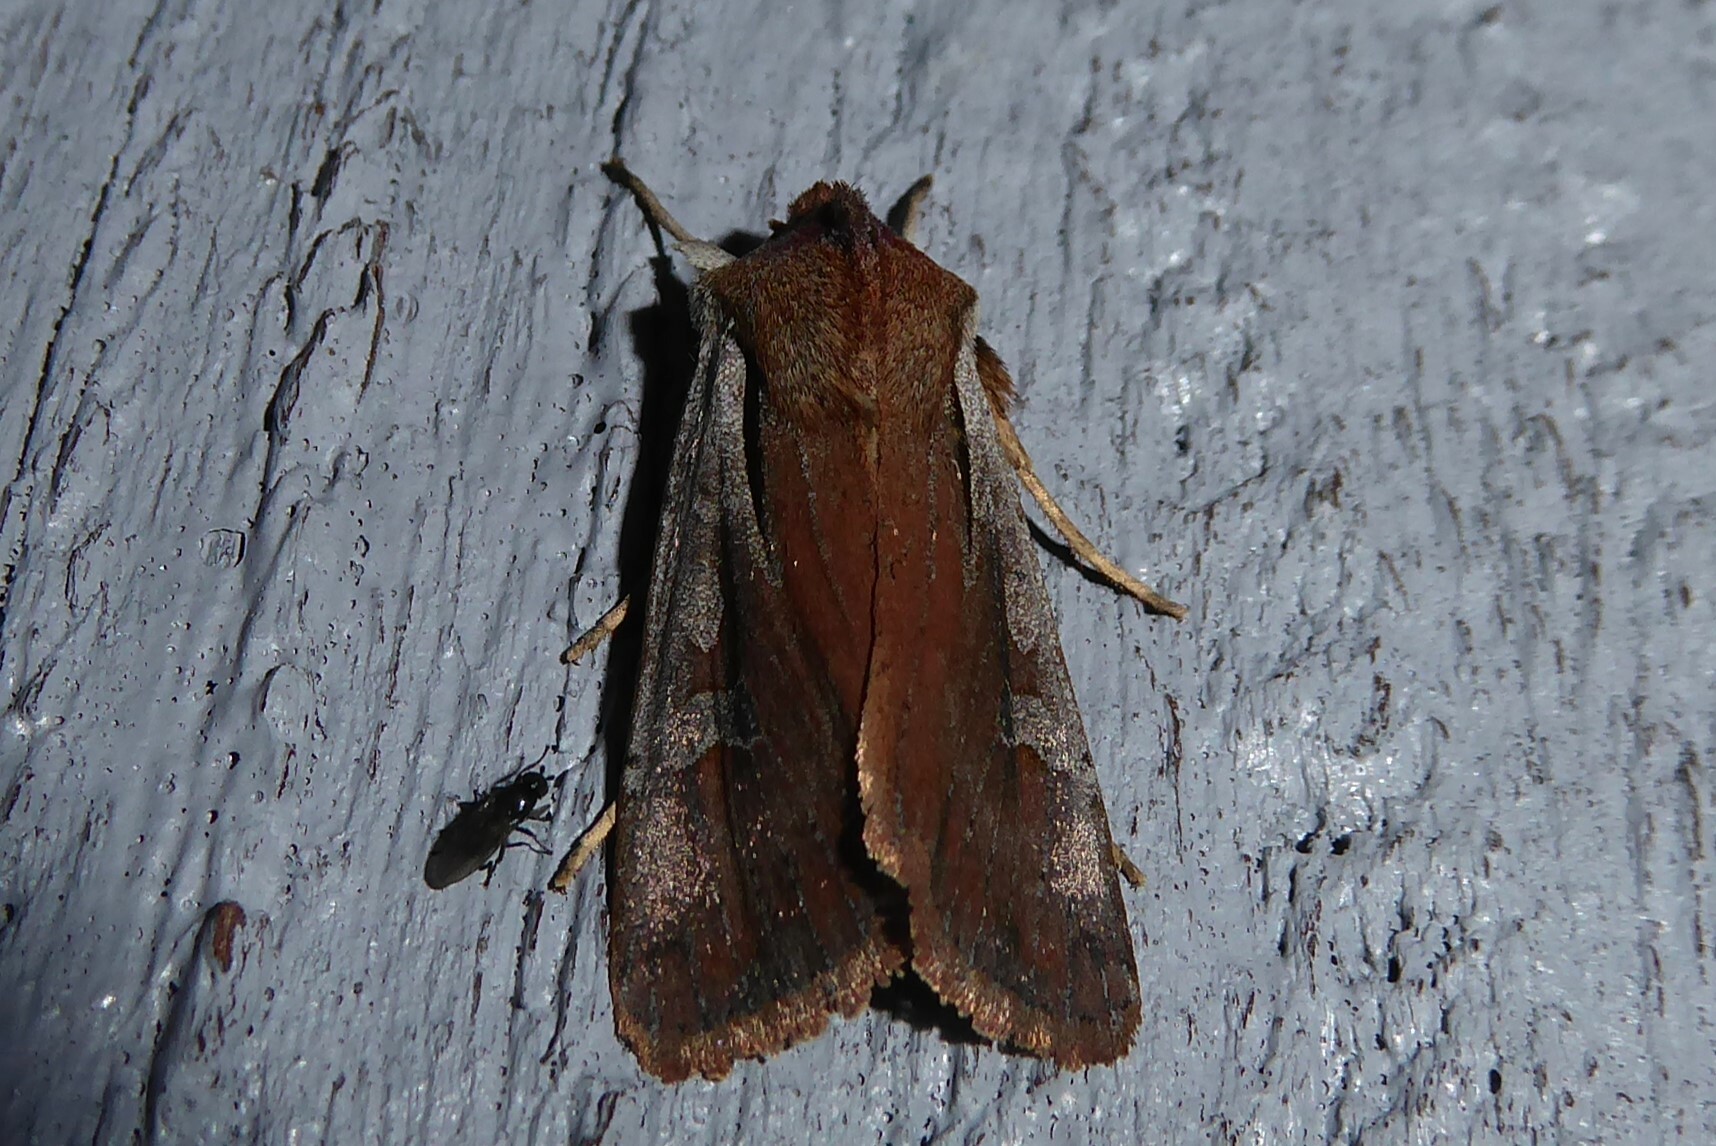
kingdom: Animalia
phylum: Arthropoda
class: Insecta
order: Lepidoptera
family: Noctuidae
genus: Ichneutica
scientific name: Ichneutica atristriga
